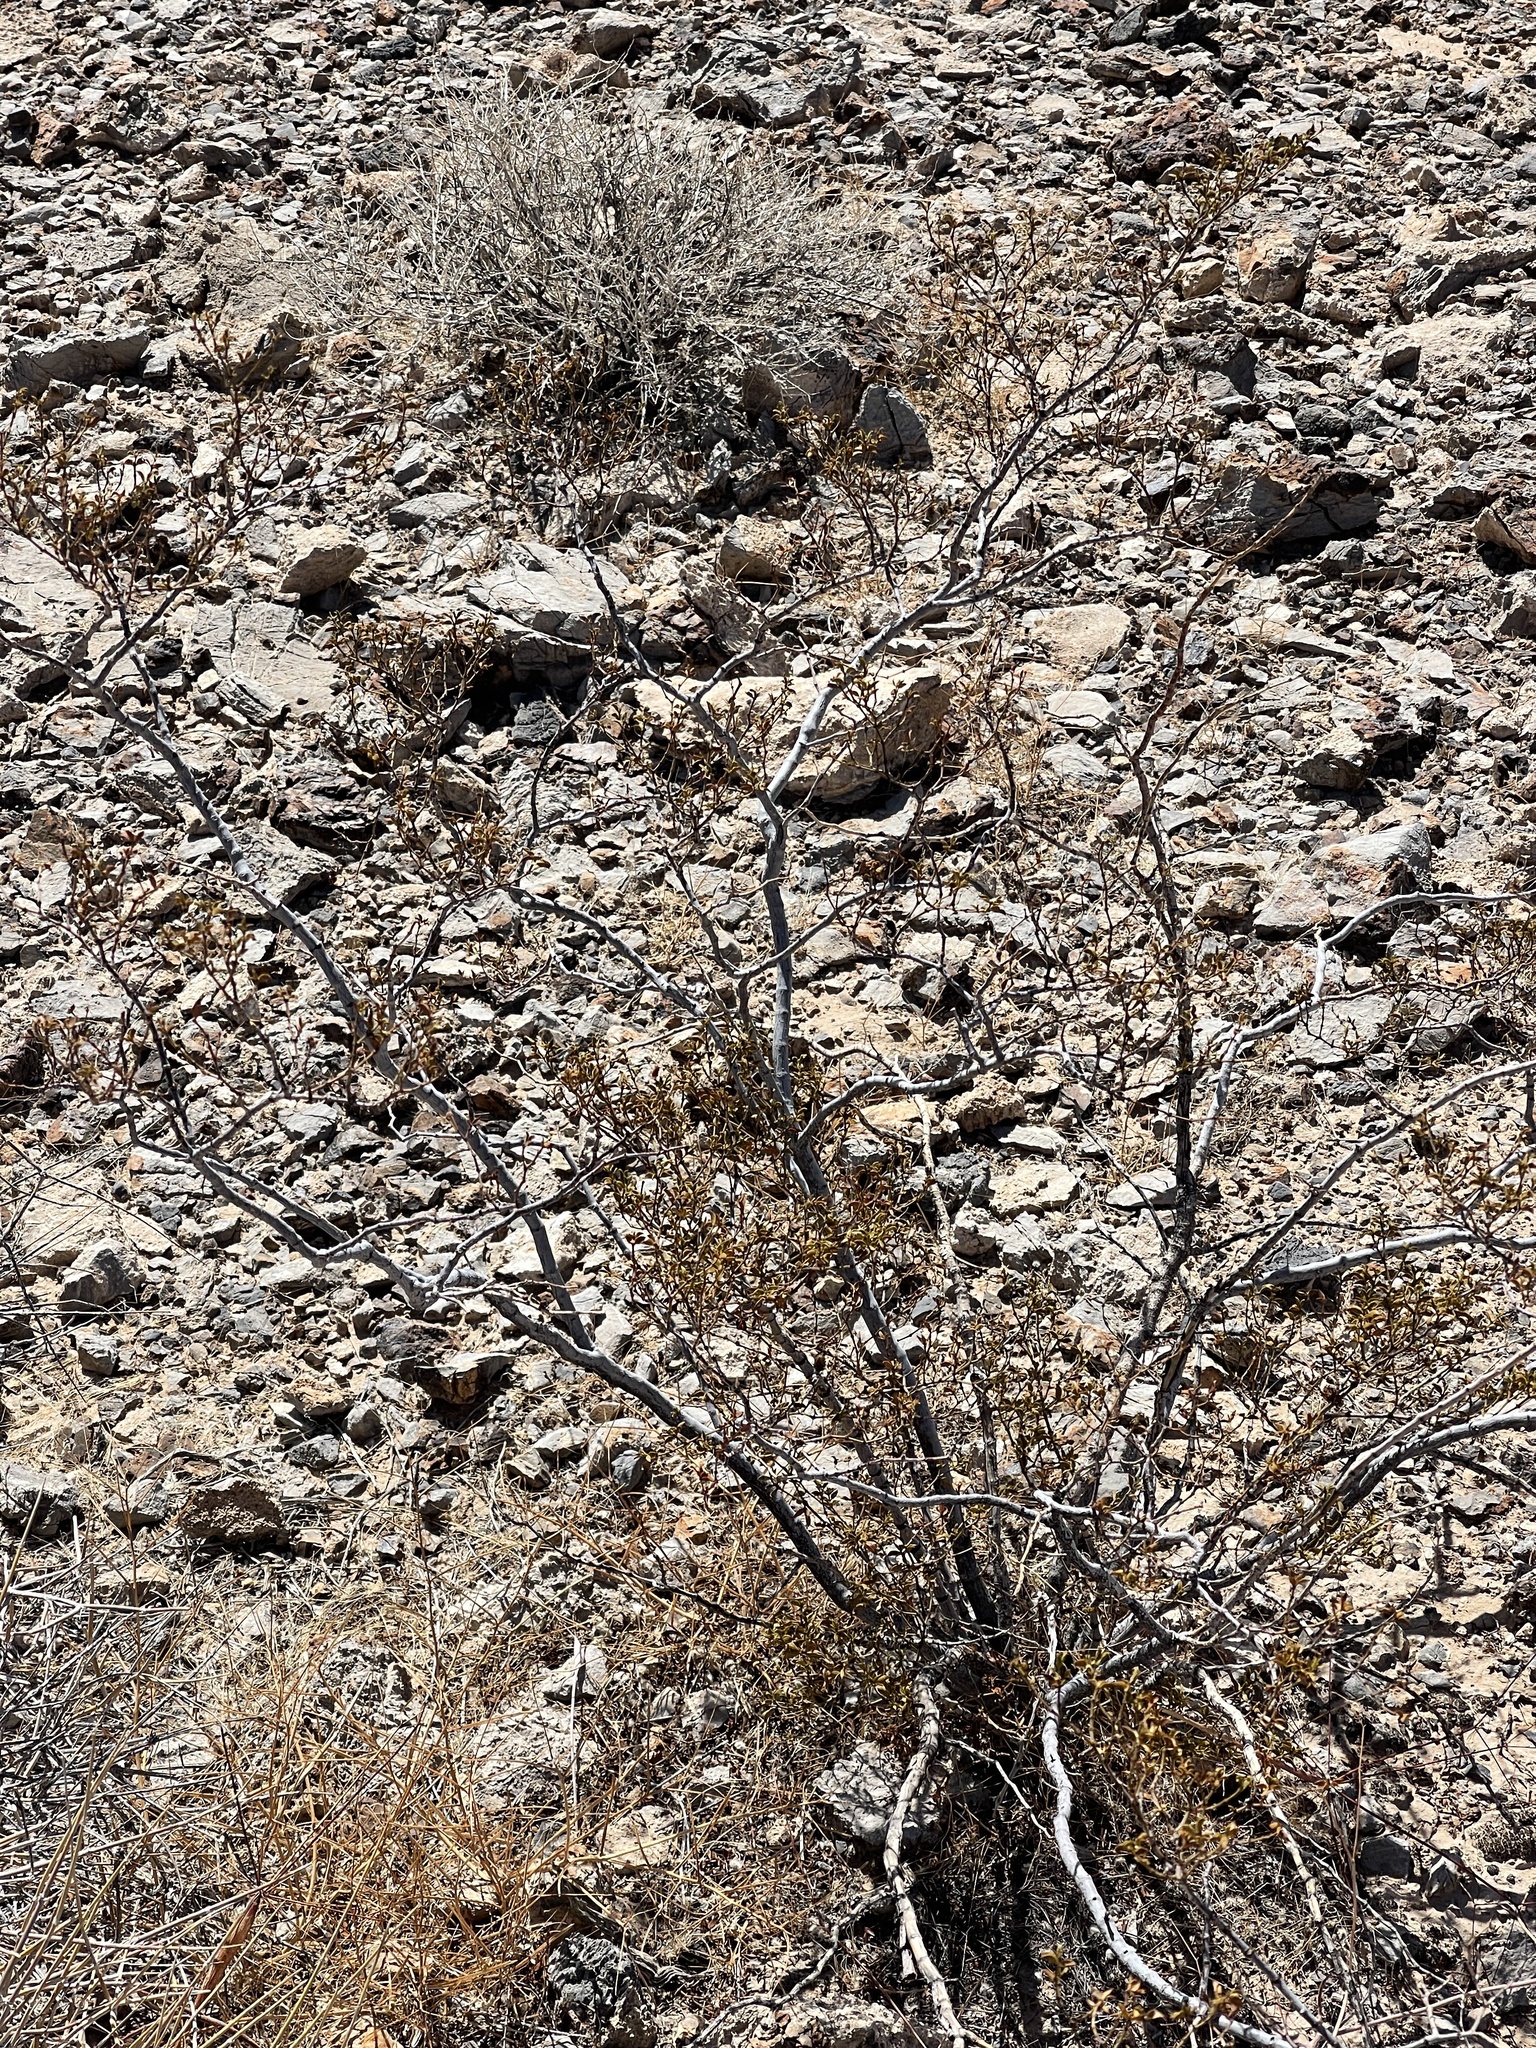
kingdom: Plantae
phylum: Tracheophyta
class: Magnoliopsida
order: Zygophyllales
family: Zygophyllaceae
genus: Larrea
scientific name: Larrea tridentata
